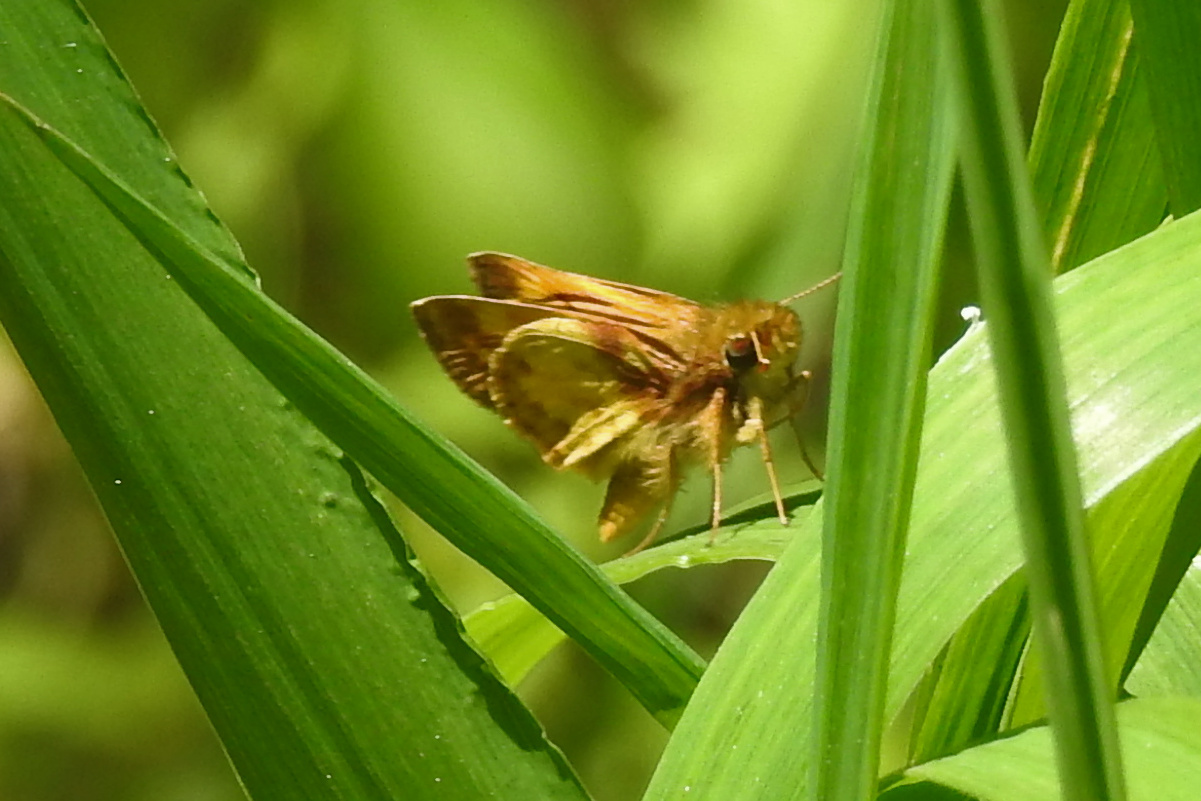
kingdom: Animalia
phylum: Arthropoda
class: Insecta
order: Lepidoptera
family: Hesperiidae
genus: Lon
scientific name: Lon zabulon
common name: Zabulon skipper
